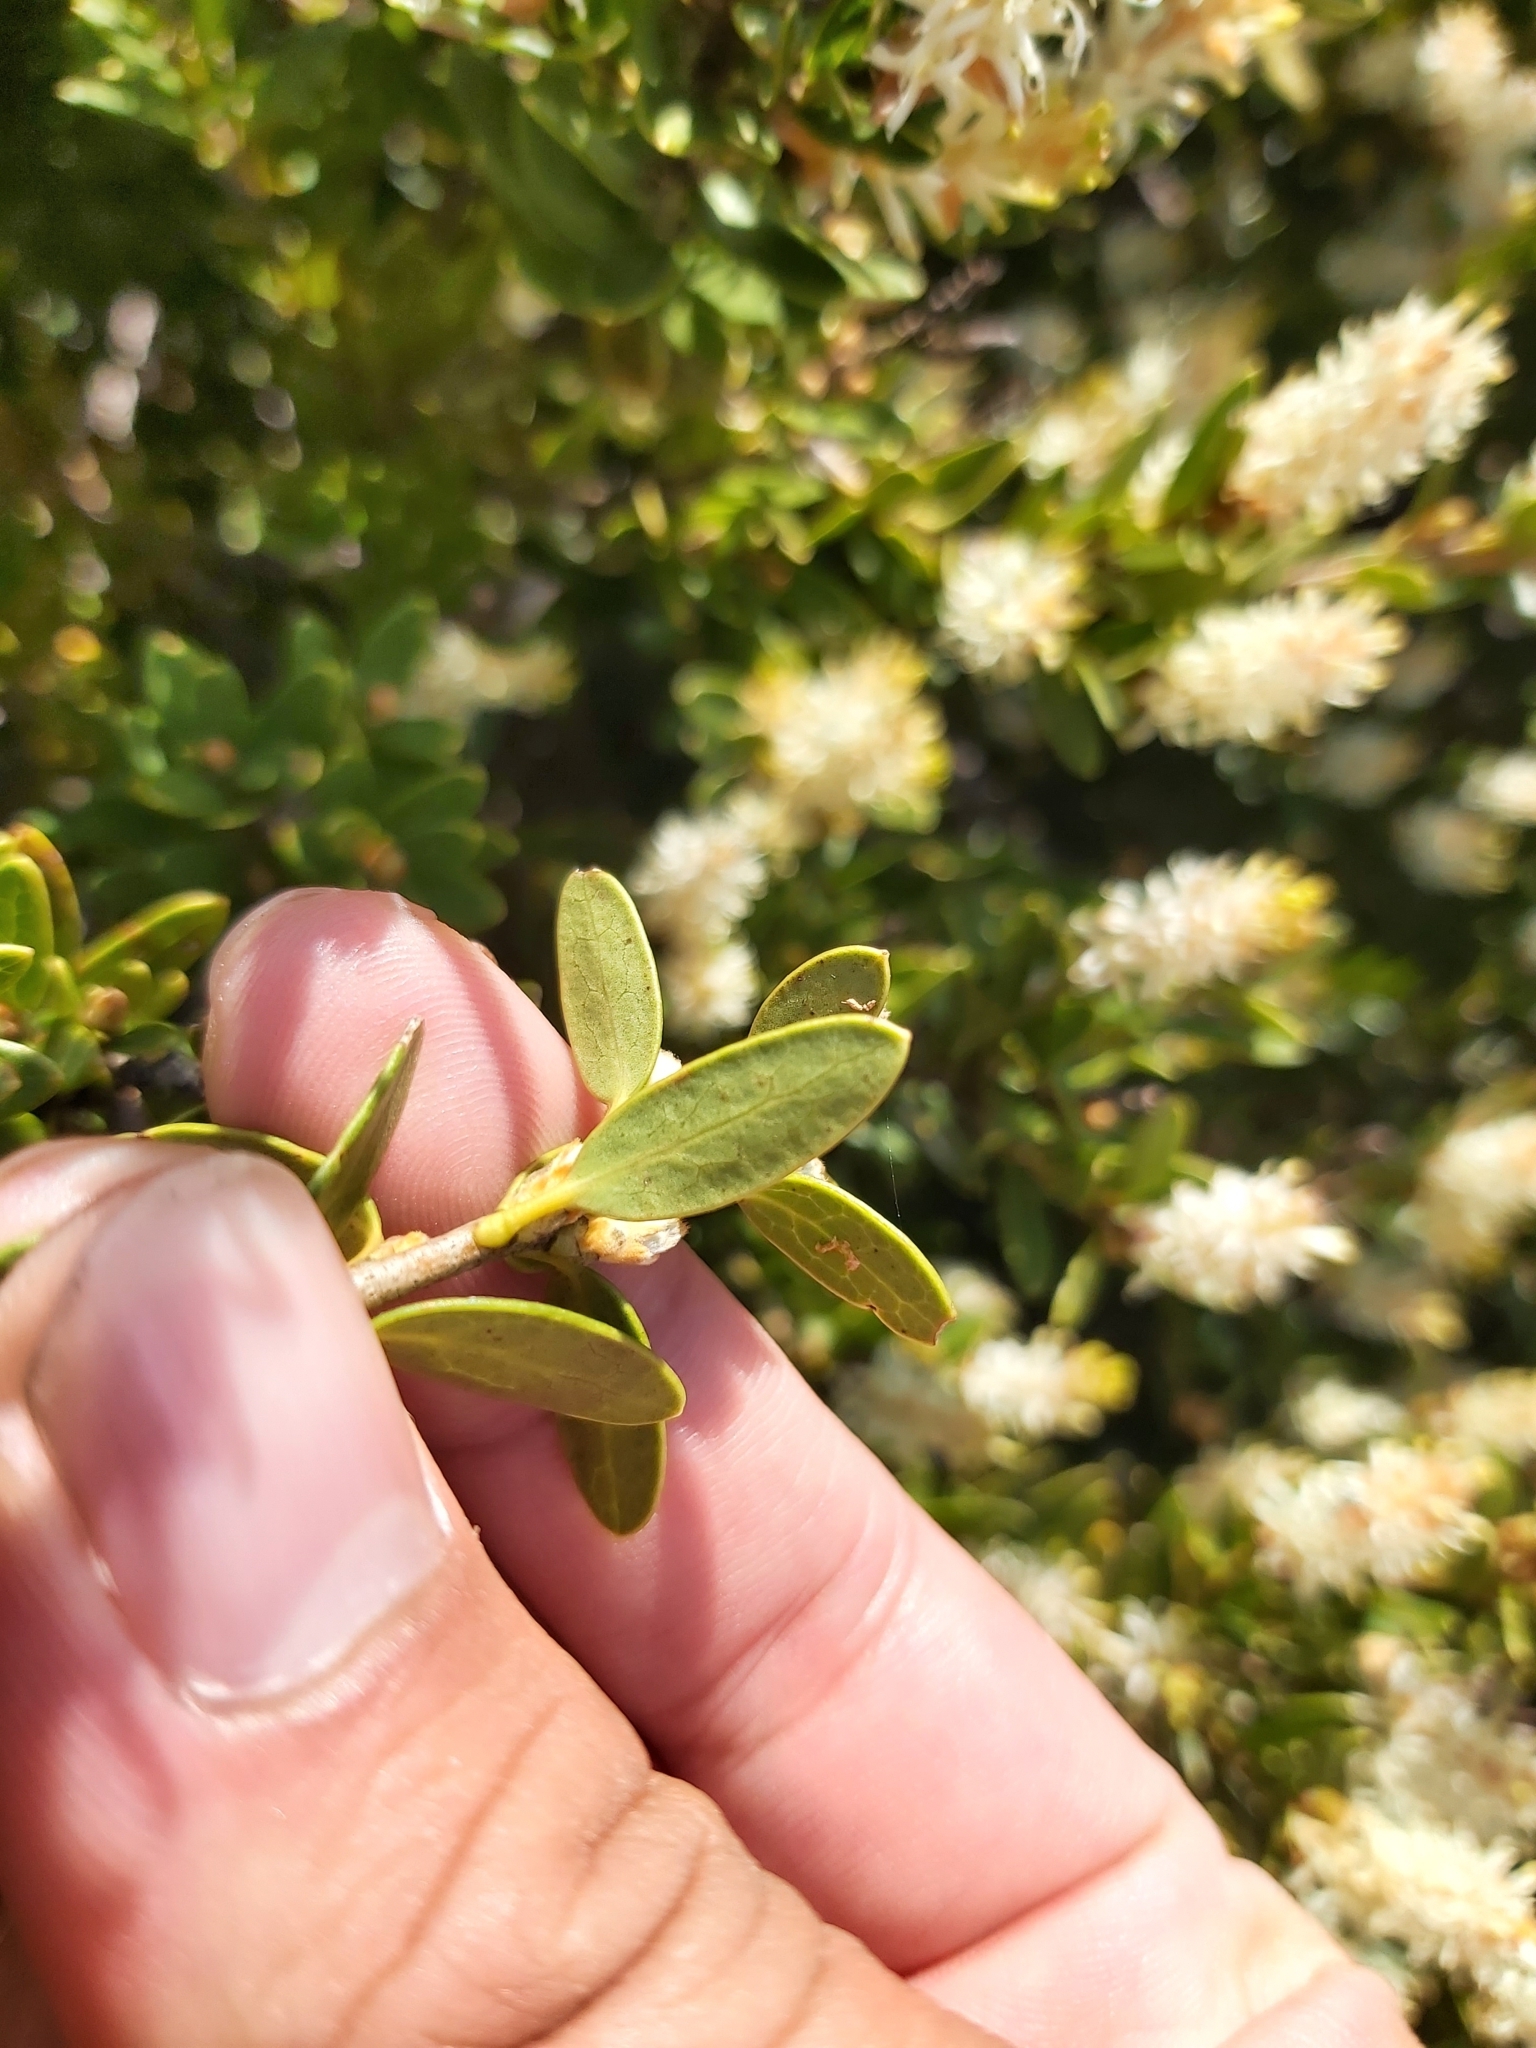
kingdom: Plantae
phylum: Tracheophyta
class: Magnoliopsida
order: Proteales
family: Proteaceae
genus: Orites
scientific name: Orites lancifolius
